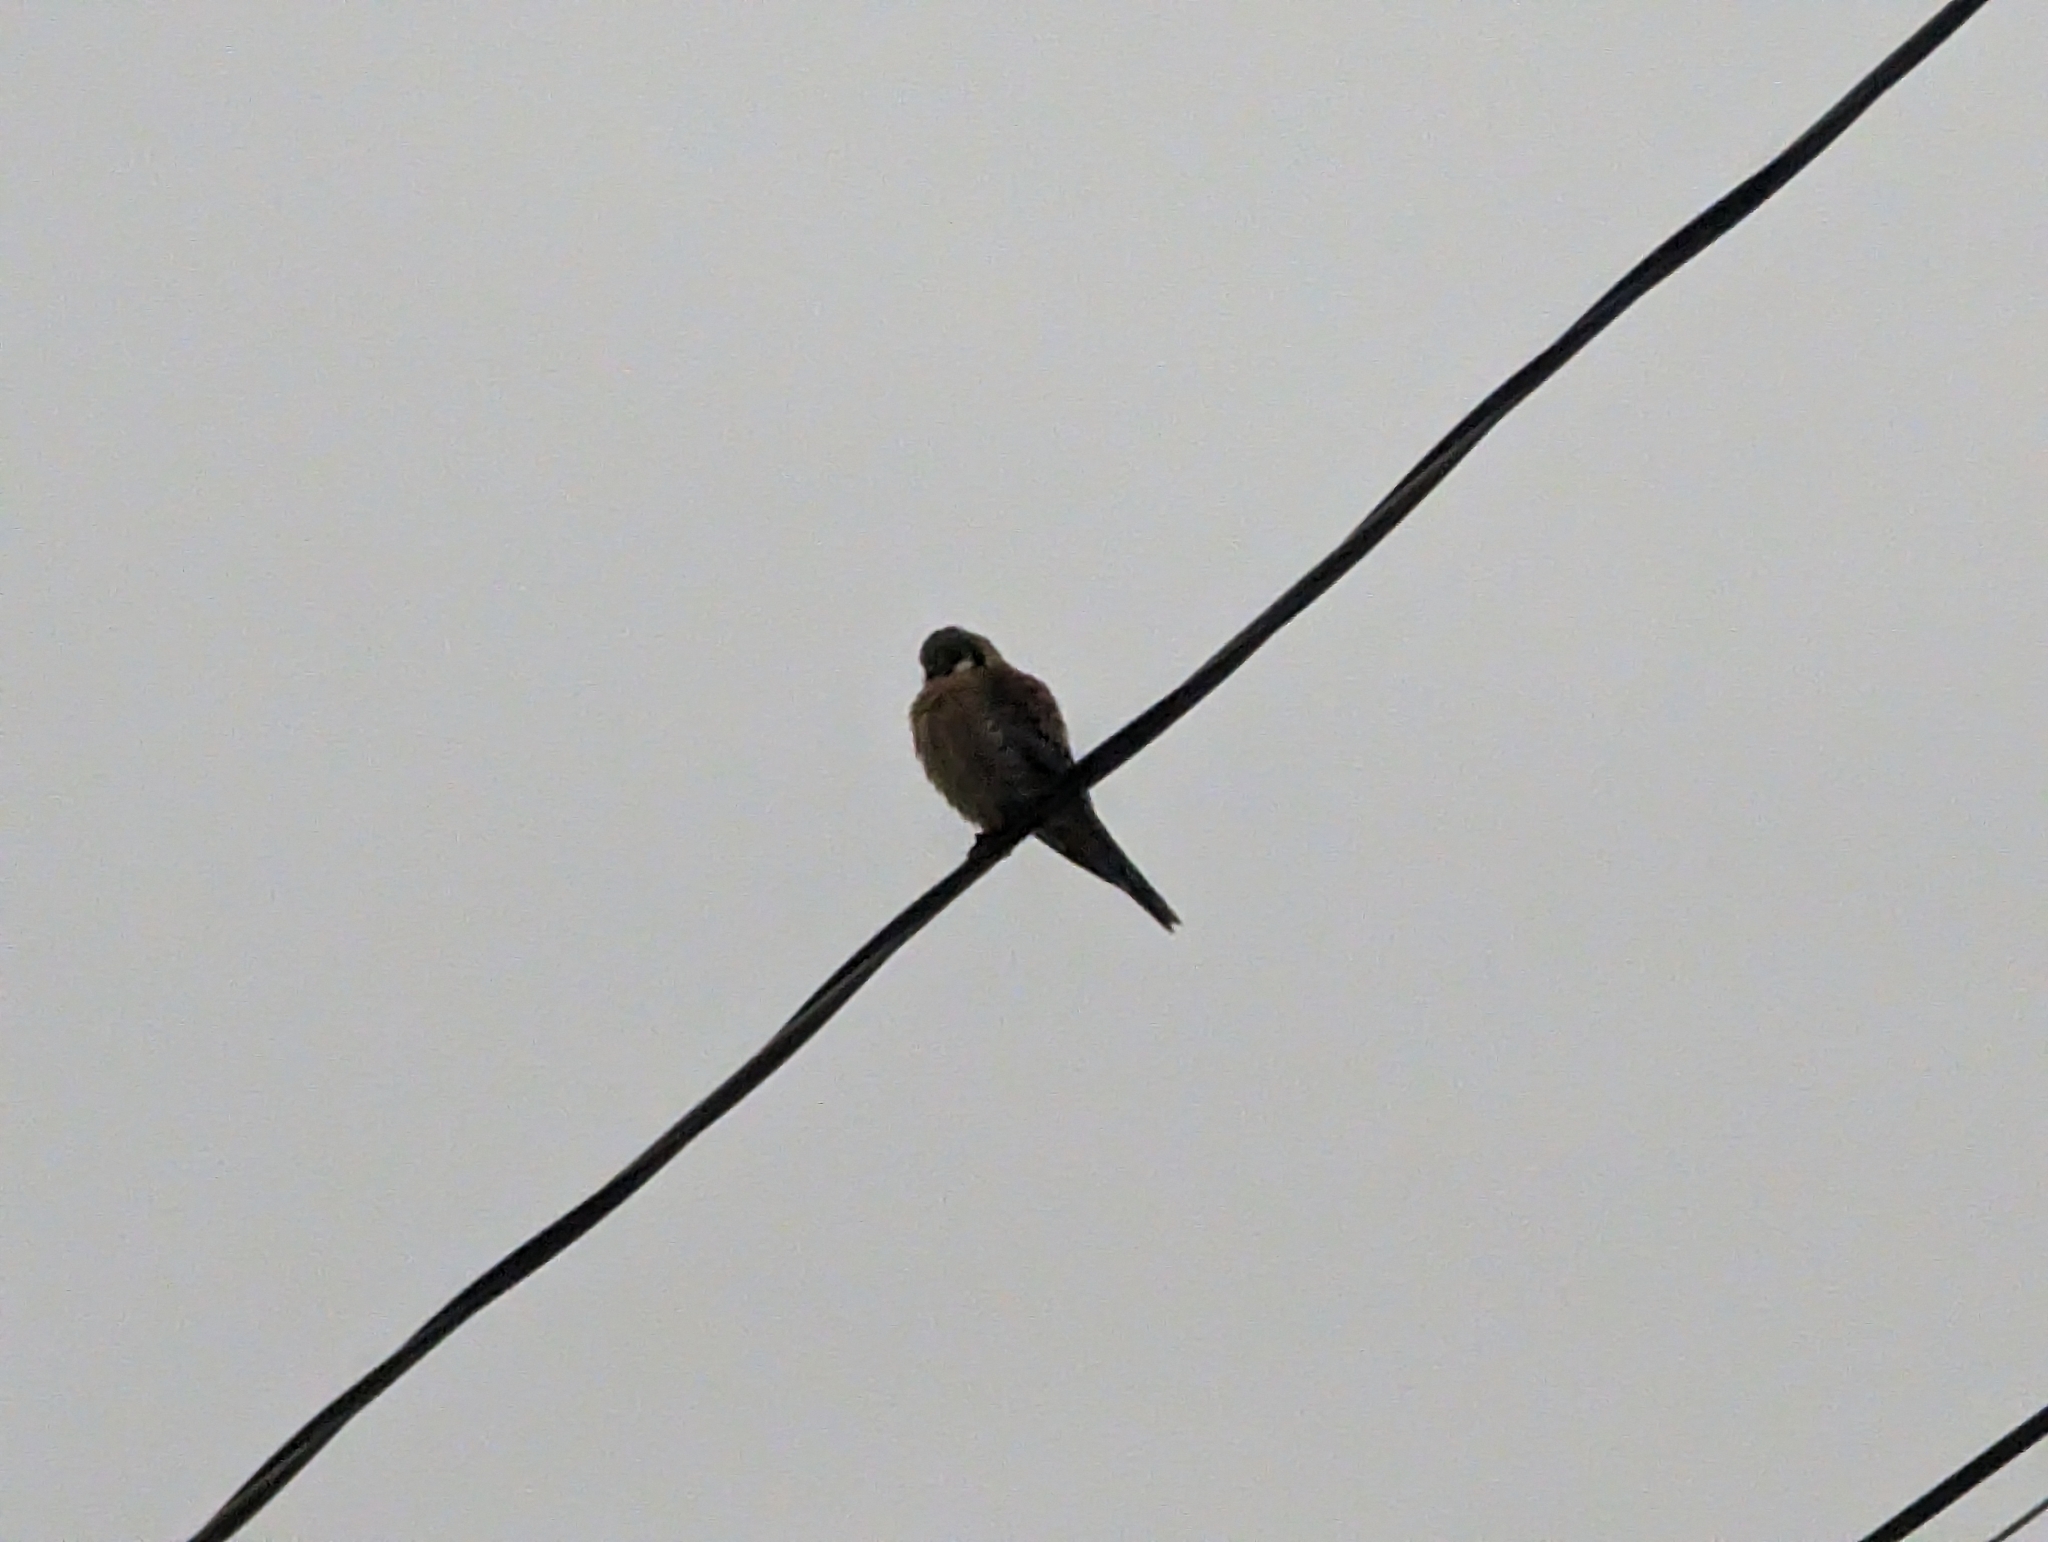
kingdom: Animalia
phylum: Chordata
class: Aves
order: Falconiformes
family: Falconidae
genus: Falco
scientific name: Falco sparverius
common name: American kestrel
